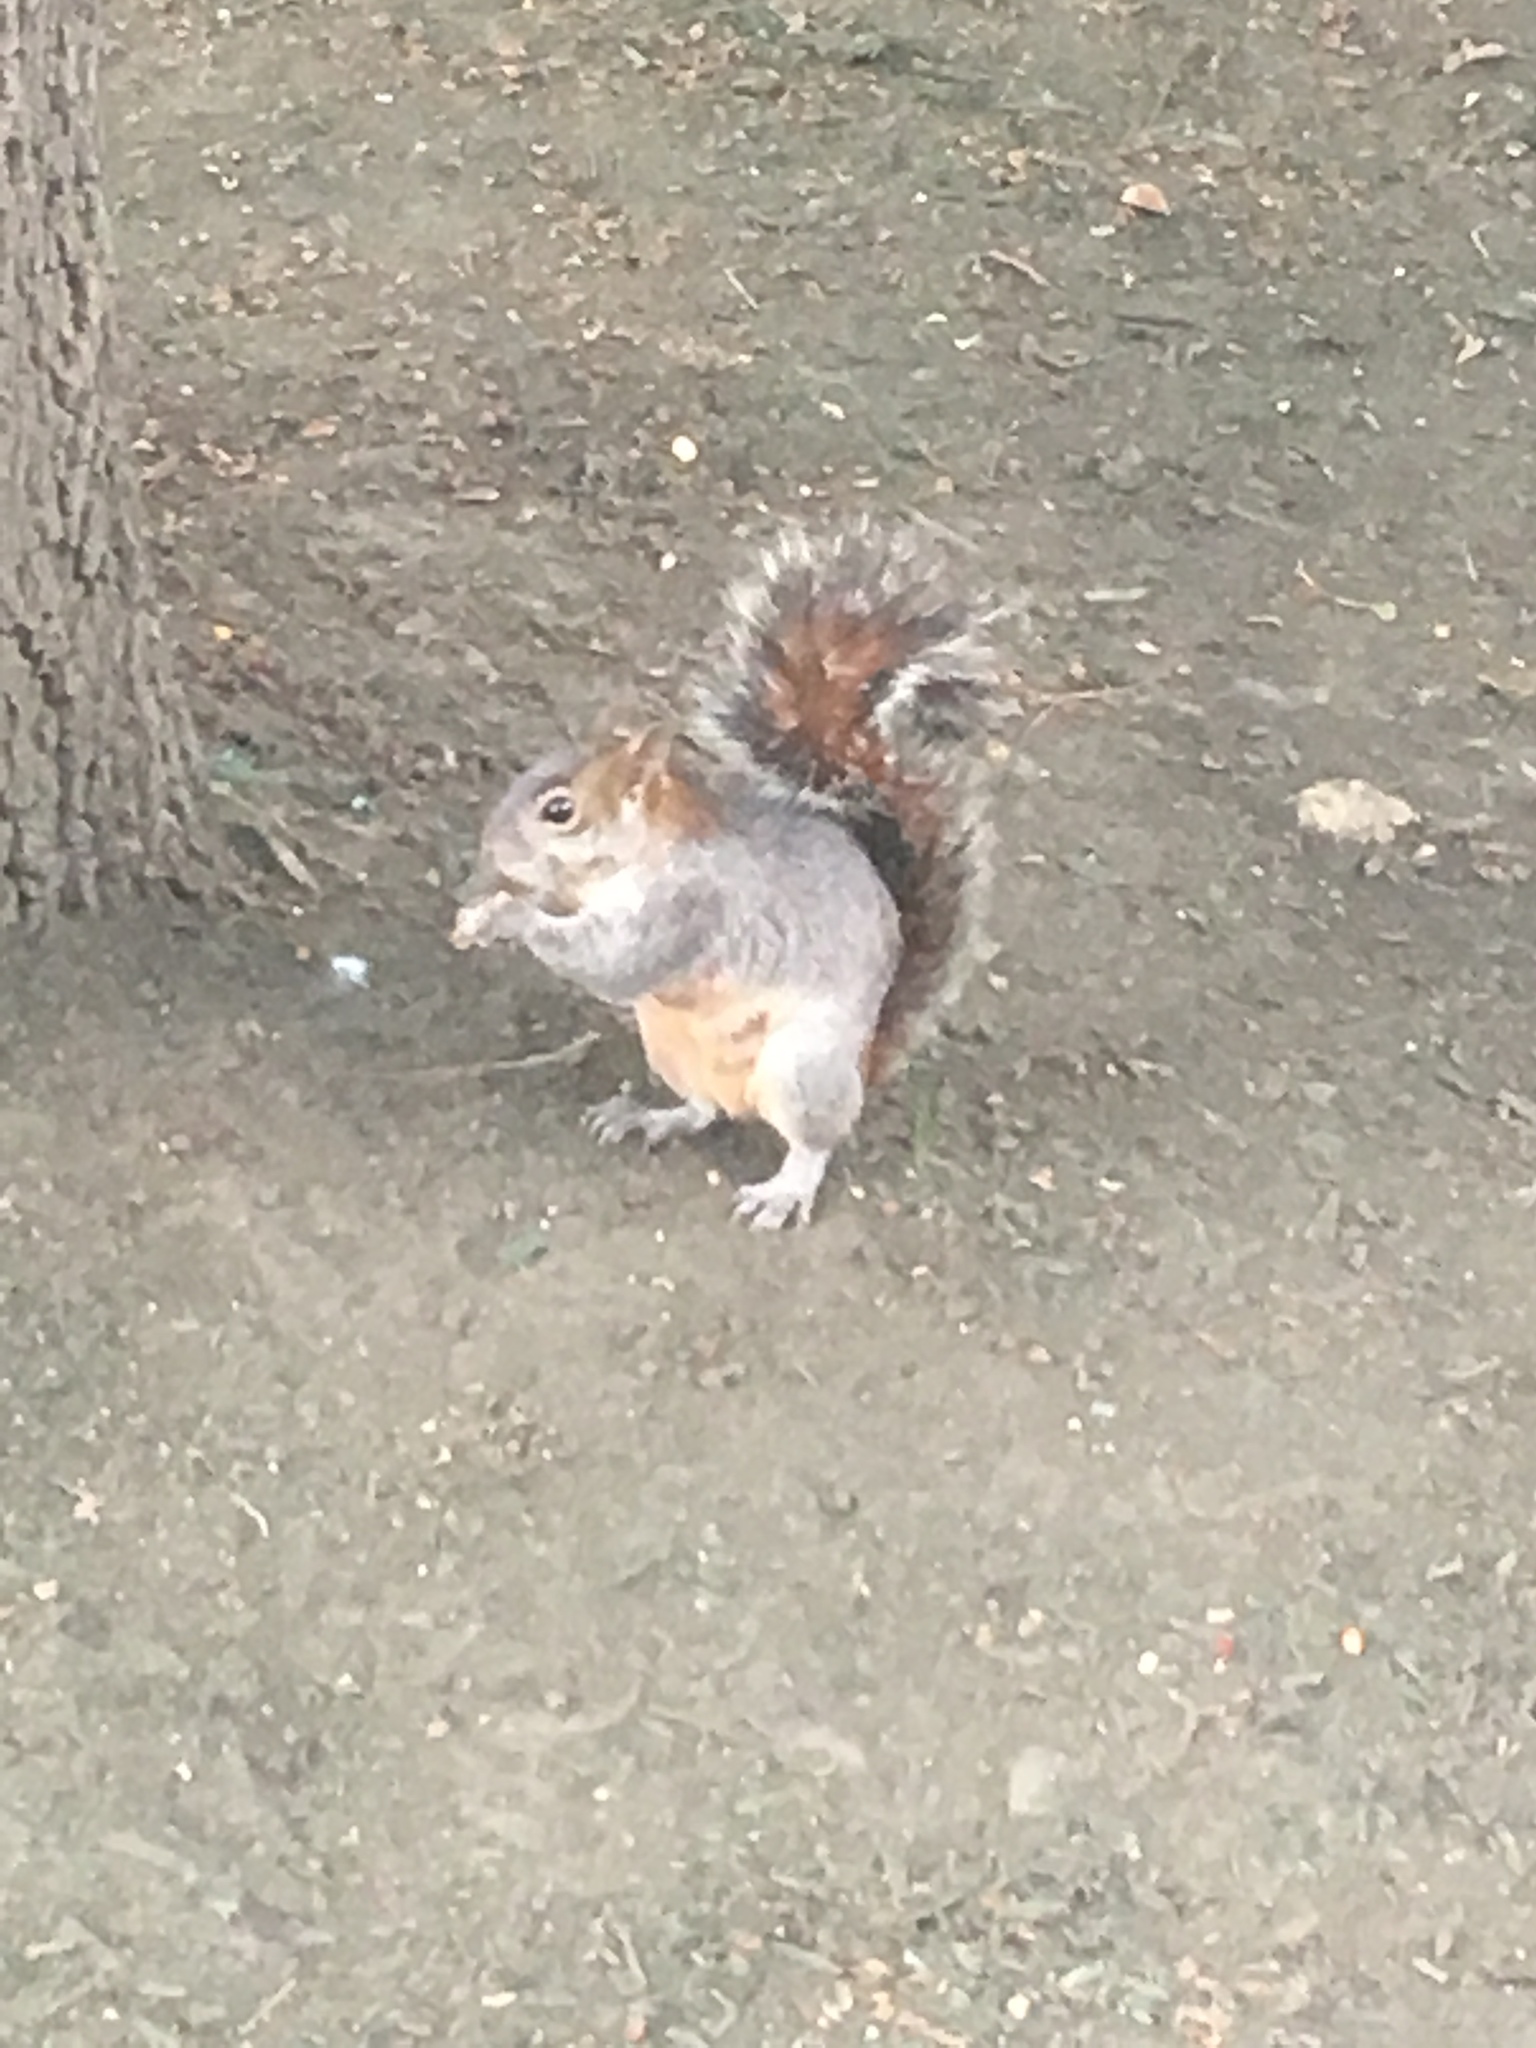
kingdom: Animalia
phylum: Chordata
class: Mammalia
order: Rodentia
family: Sciuridae
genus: Sciurus
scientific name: Sciurus aureogaster
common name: Red-bellied squirrel
